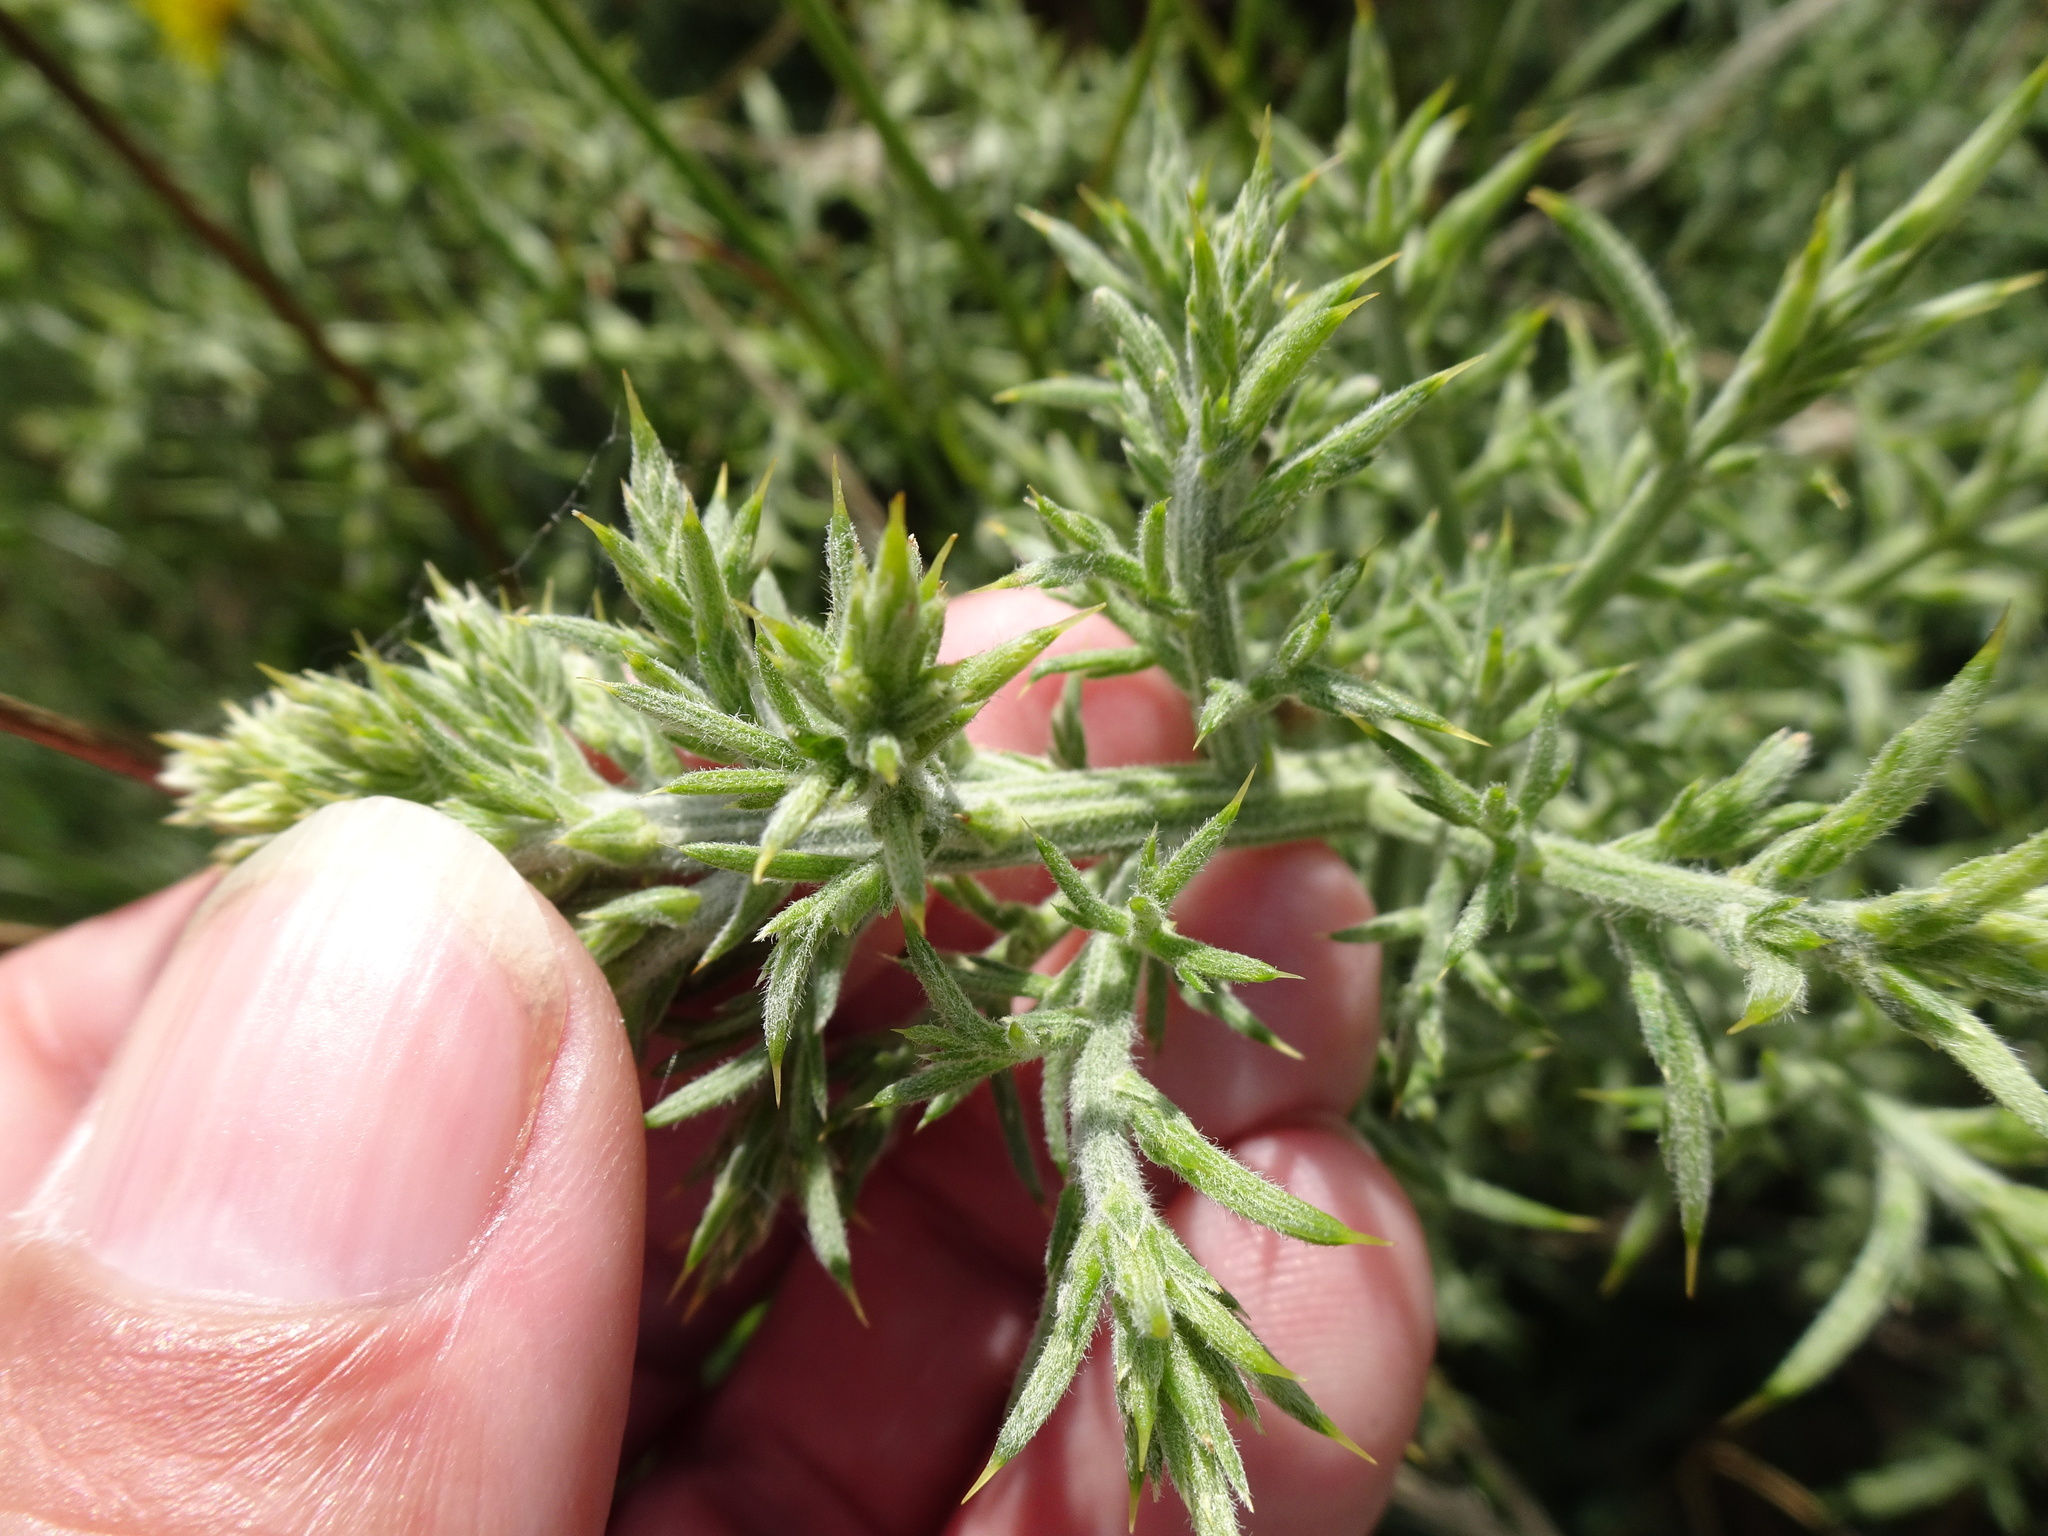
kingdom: Plantae
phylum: Tracheophyta
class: Magnoliopsida
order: Fabales
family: Fabaceae
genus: Ulex
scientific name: Ulex europaeus
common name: Common gorse
